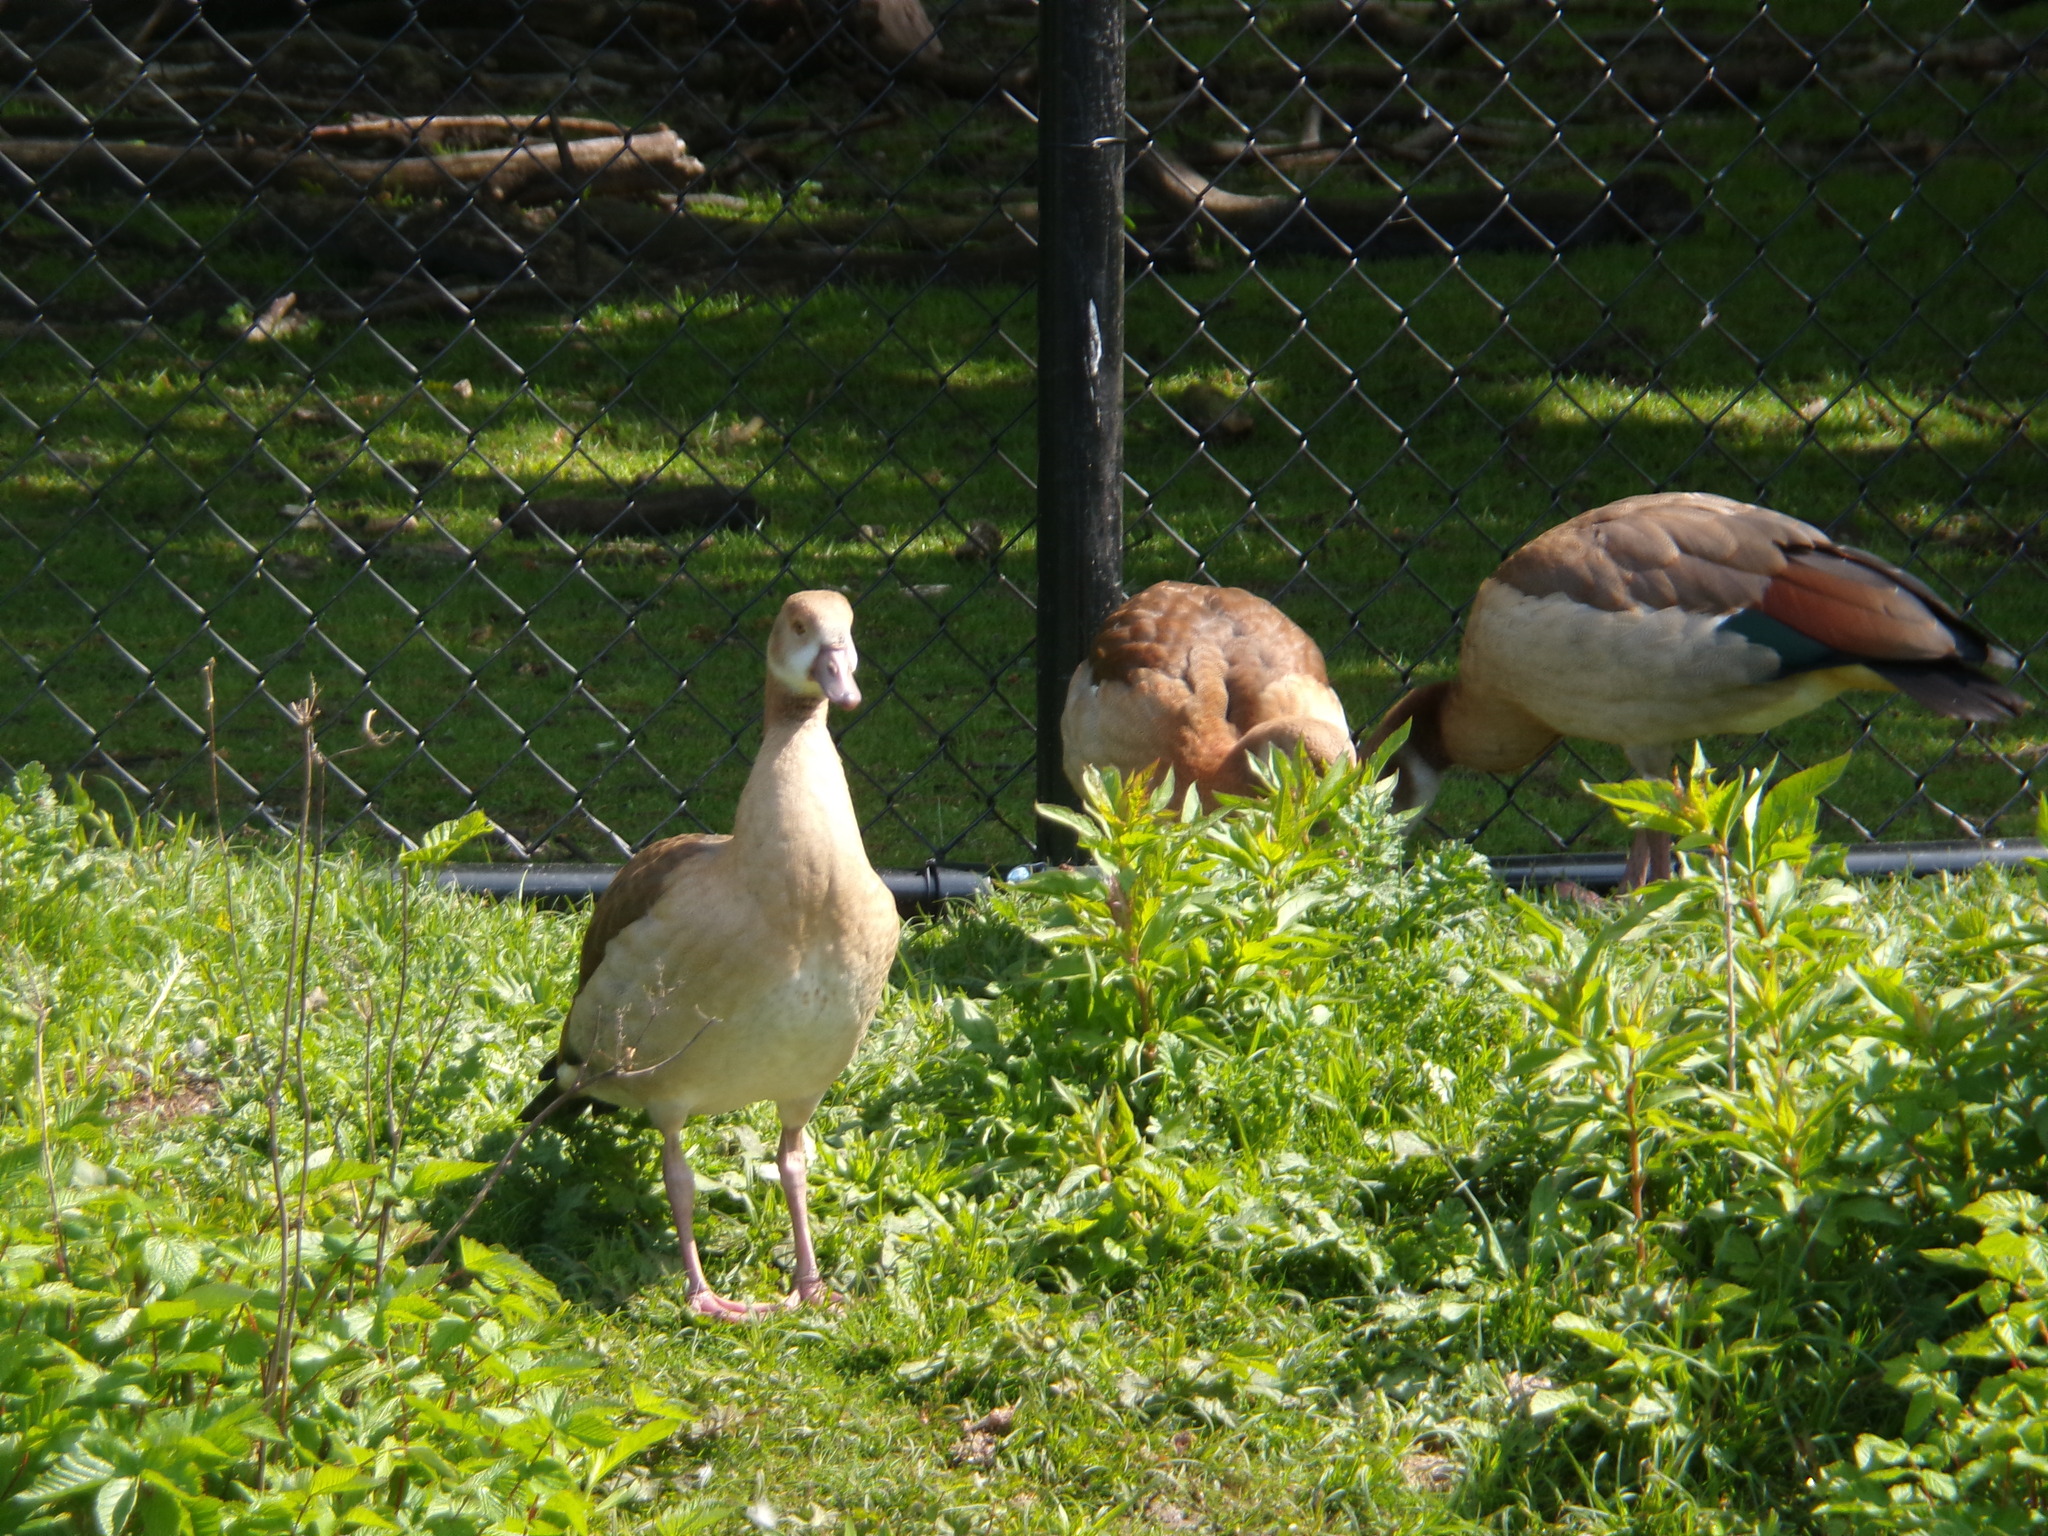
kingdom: Animalia
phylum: Chordata
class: Aves
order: Anseriformes
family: Anatidae
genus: Alopochen
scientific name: Alopochen aegyptiaca
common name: Egyptian goose
